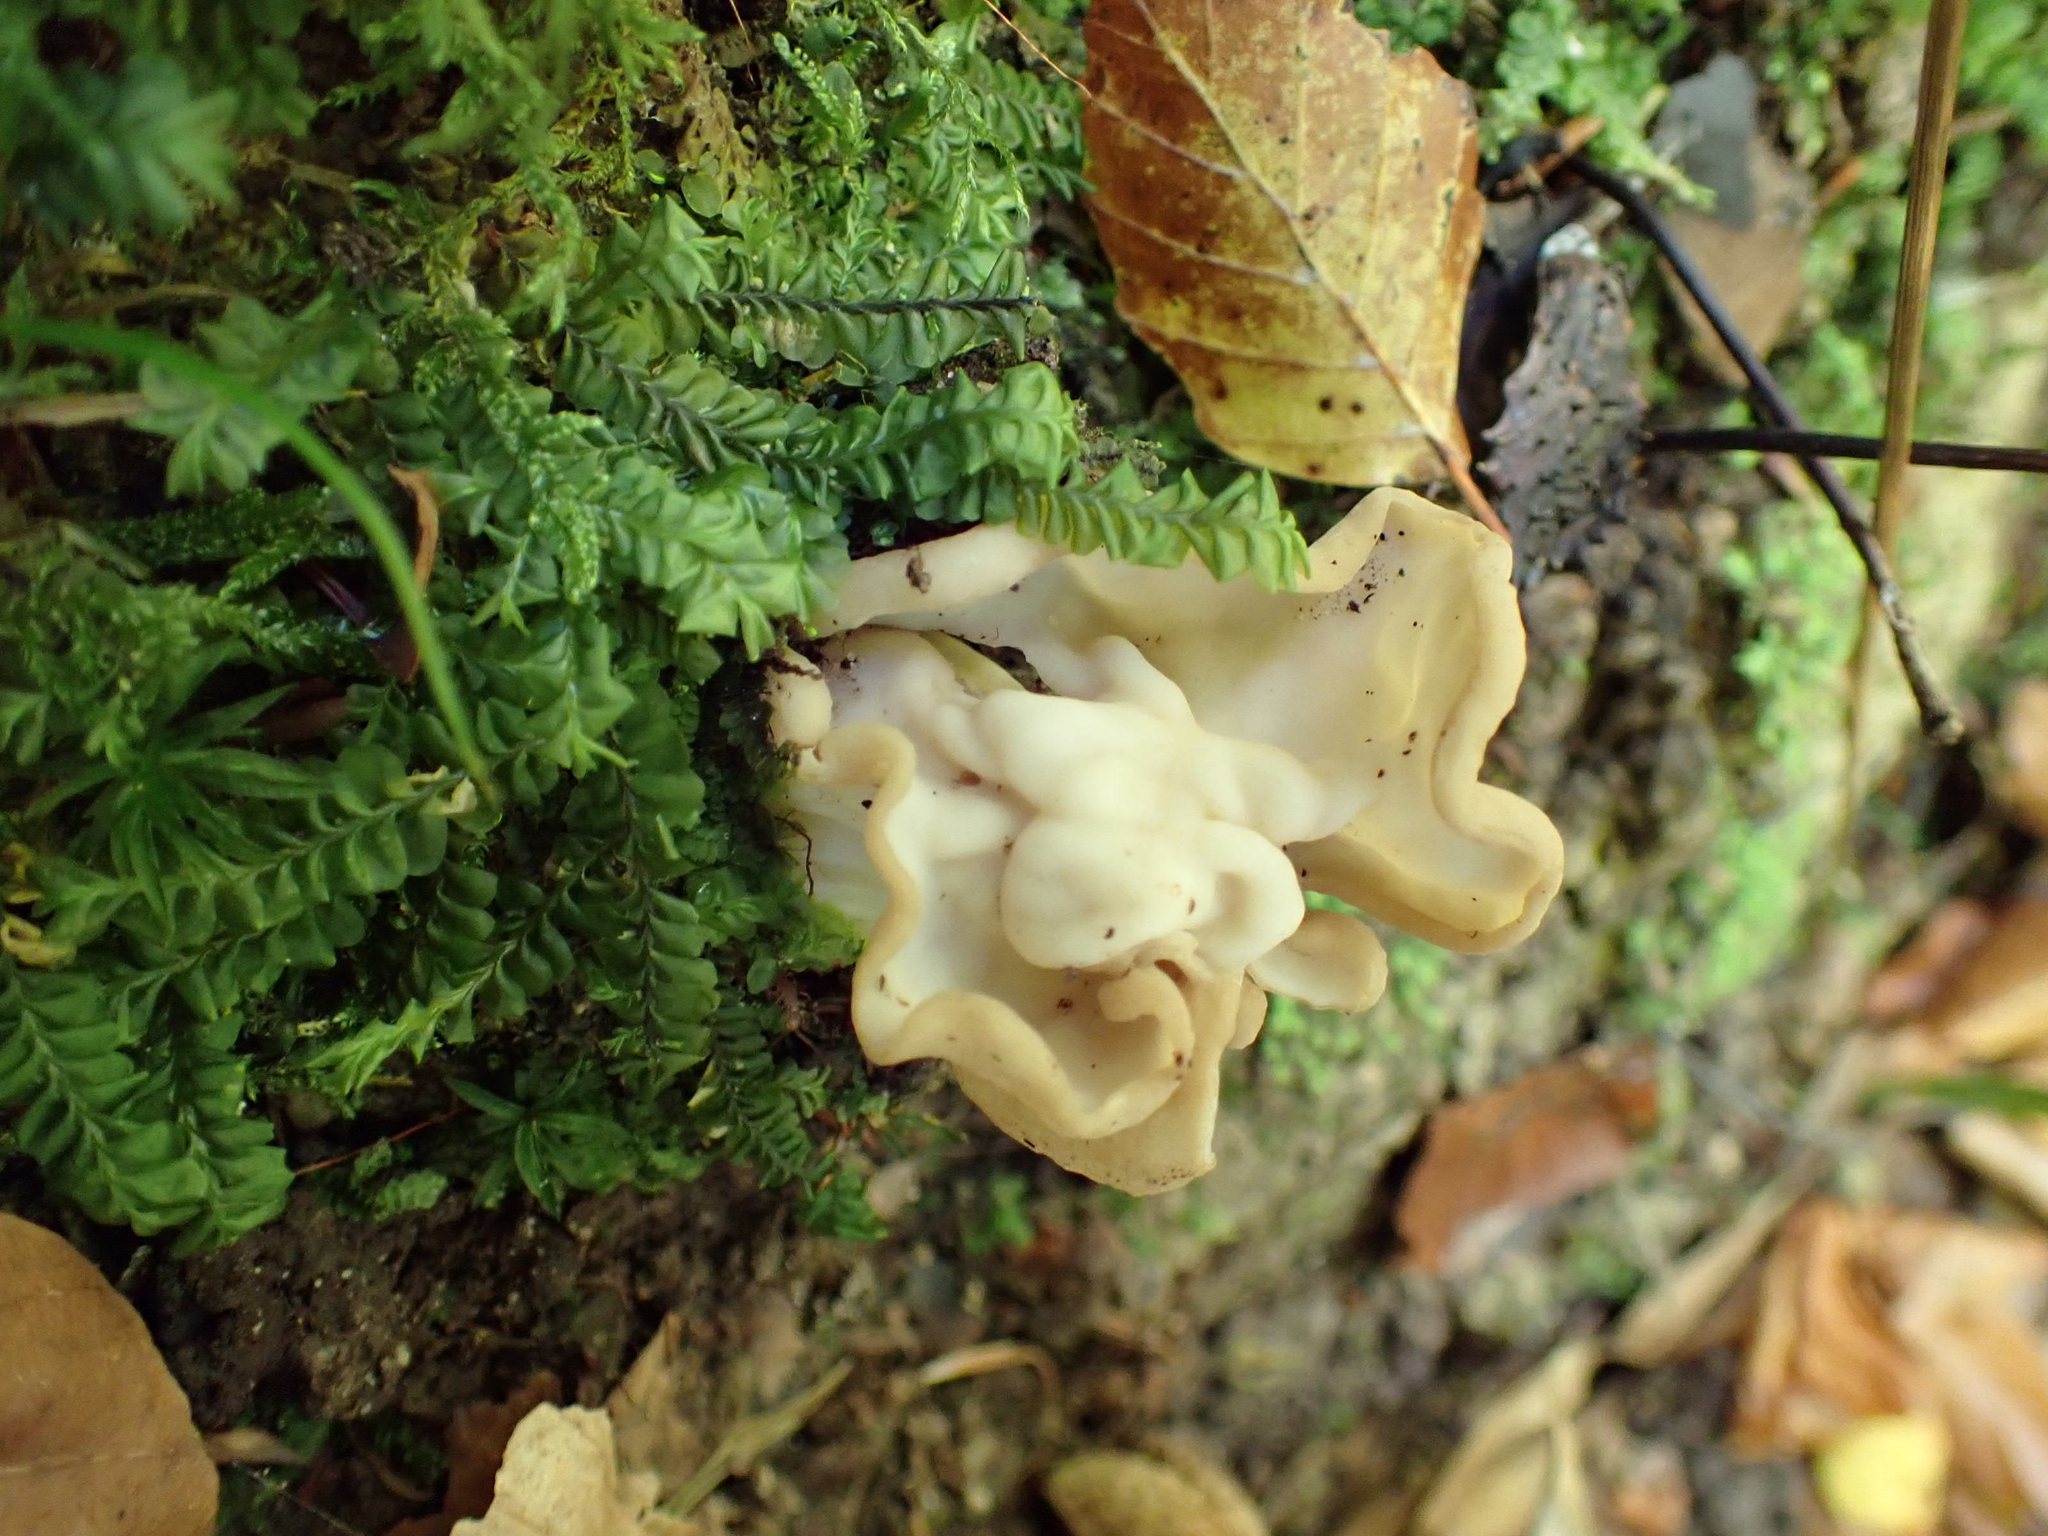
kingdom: Fungi
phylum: Ascomycota
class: Pezizomycetes
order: Pezizales
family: Helvellaceae
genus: Helvella
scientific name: Helvella crispa
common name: White saddle
